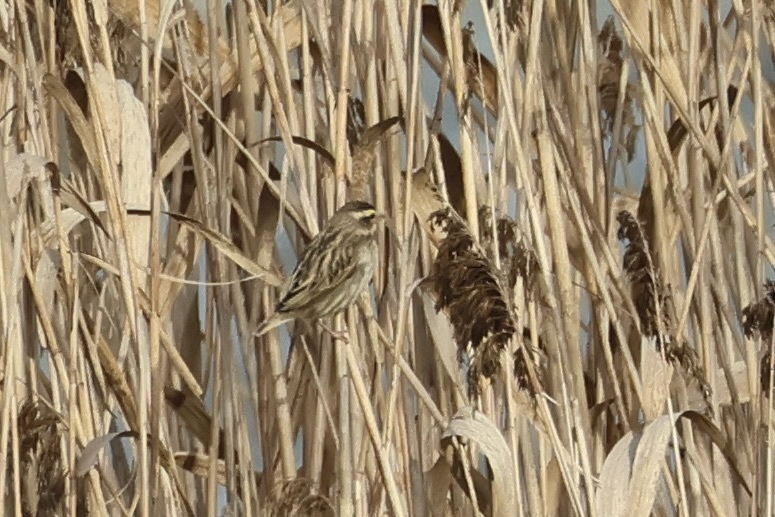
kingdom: Animalia
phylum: Chordata
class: Aves
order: Passeriformes
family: Ploceidae
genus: Euplectes
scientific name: Euplectes afer
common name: Yellow-crowned bishop
